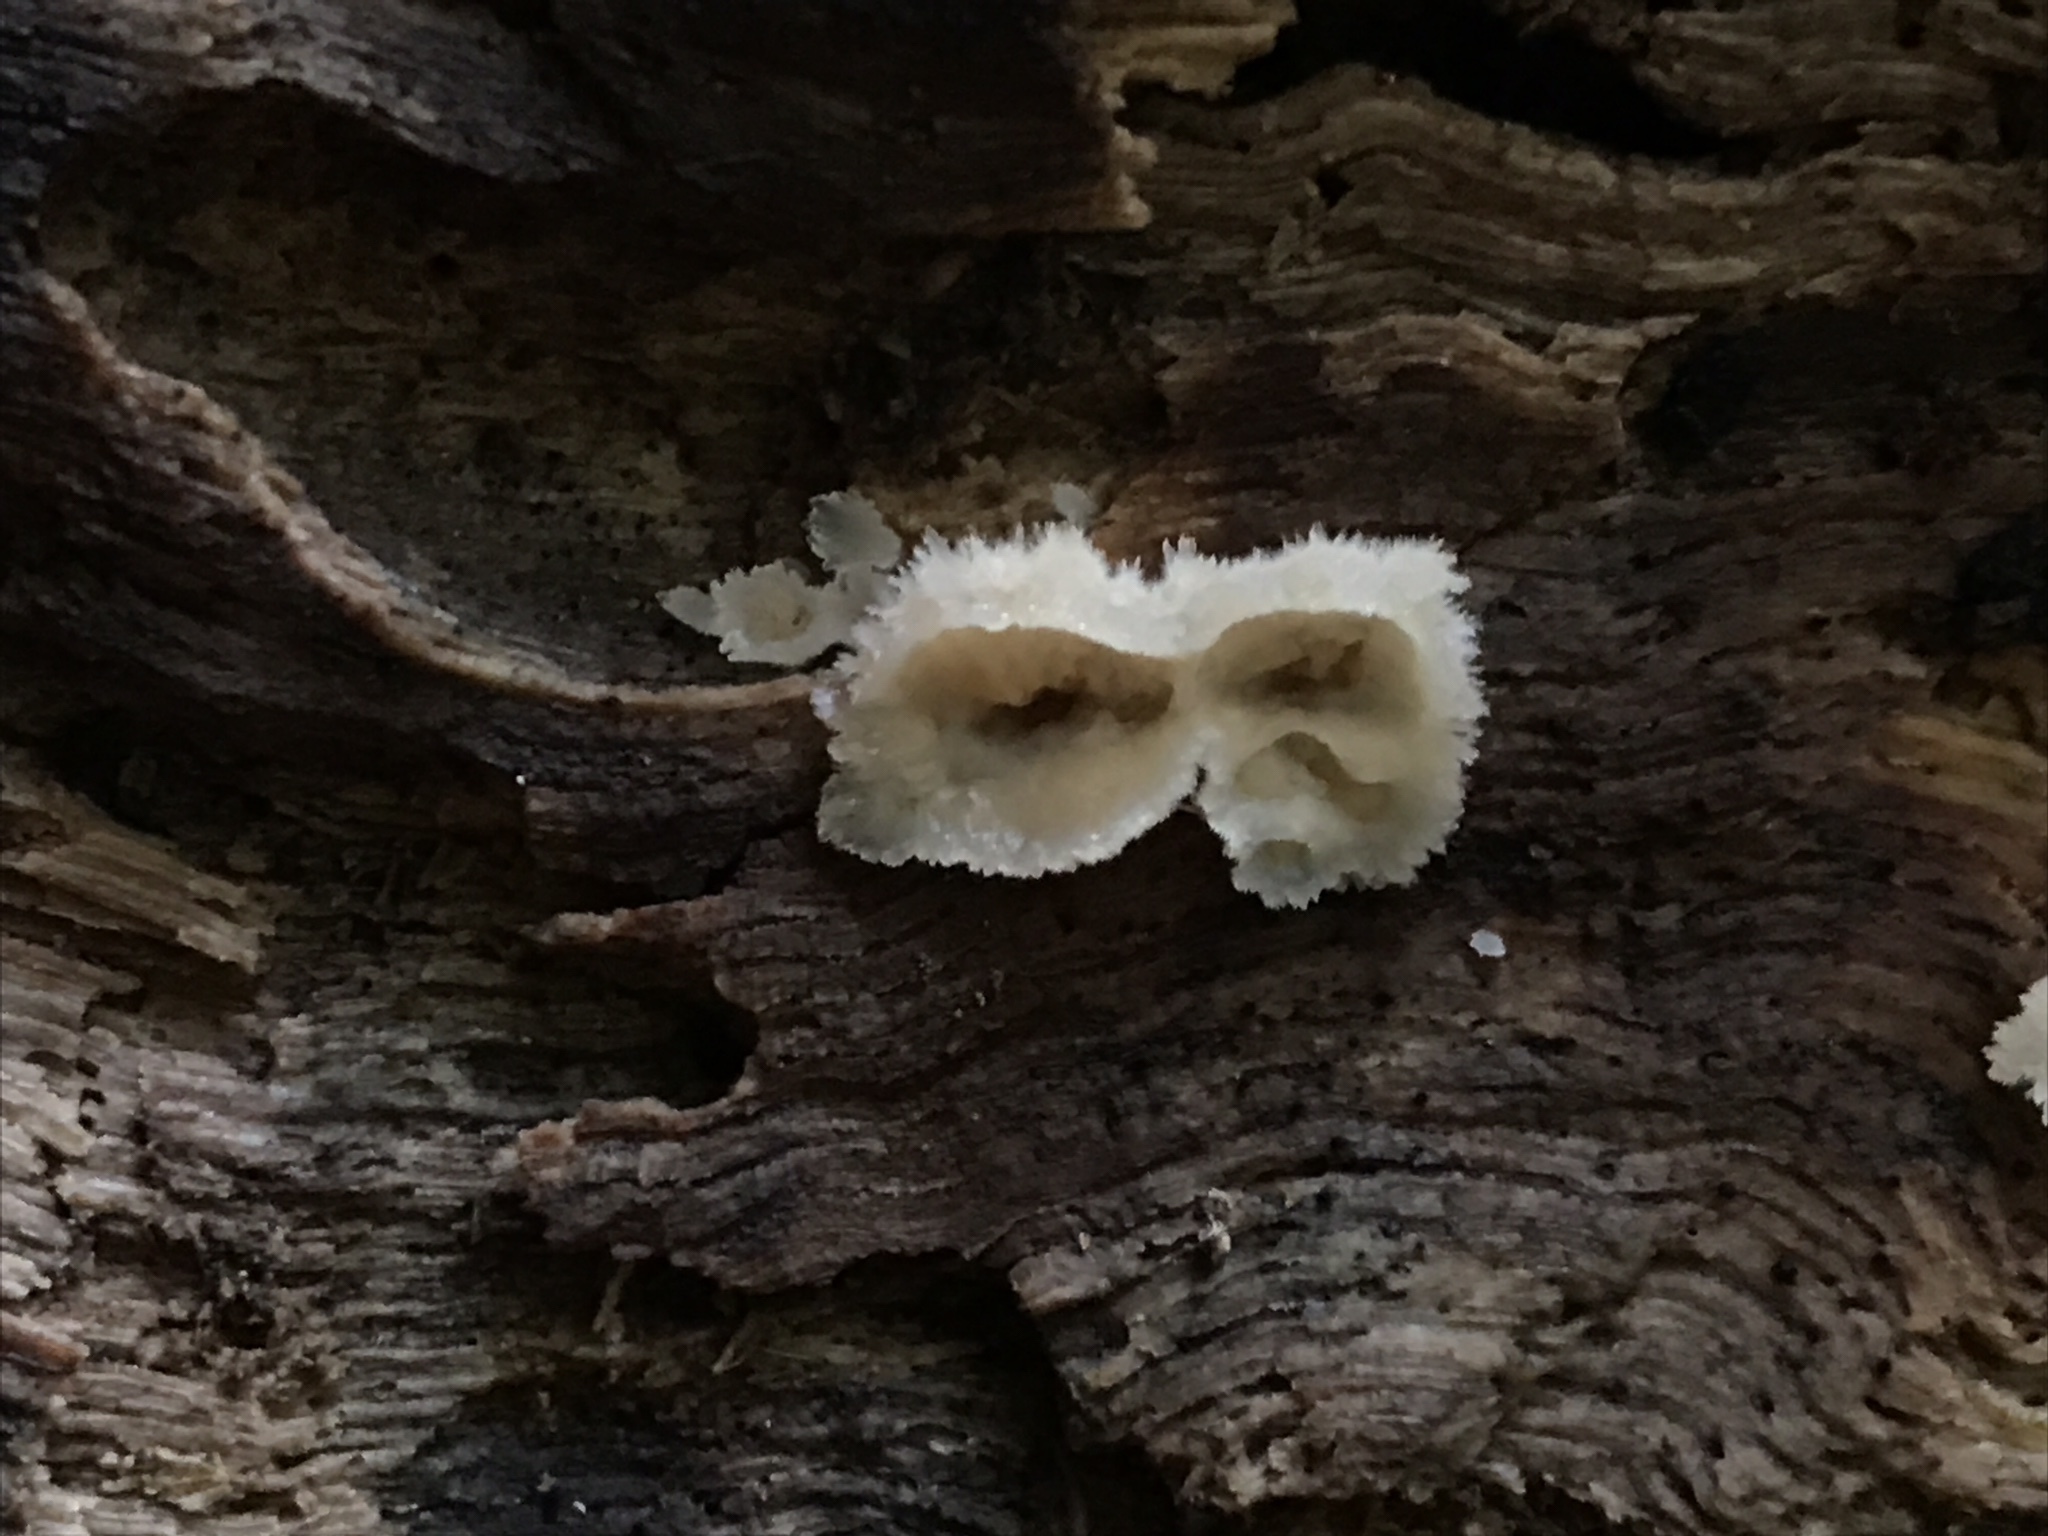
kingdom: Fungi
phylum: Basidiomycota
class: Agaricomycetes
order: Polyporales
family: Meruliaceae
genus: Phlebia
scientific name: Phlebia tremellosa
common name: Jelly rot
